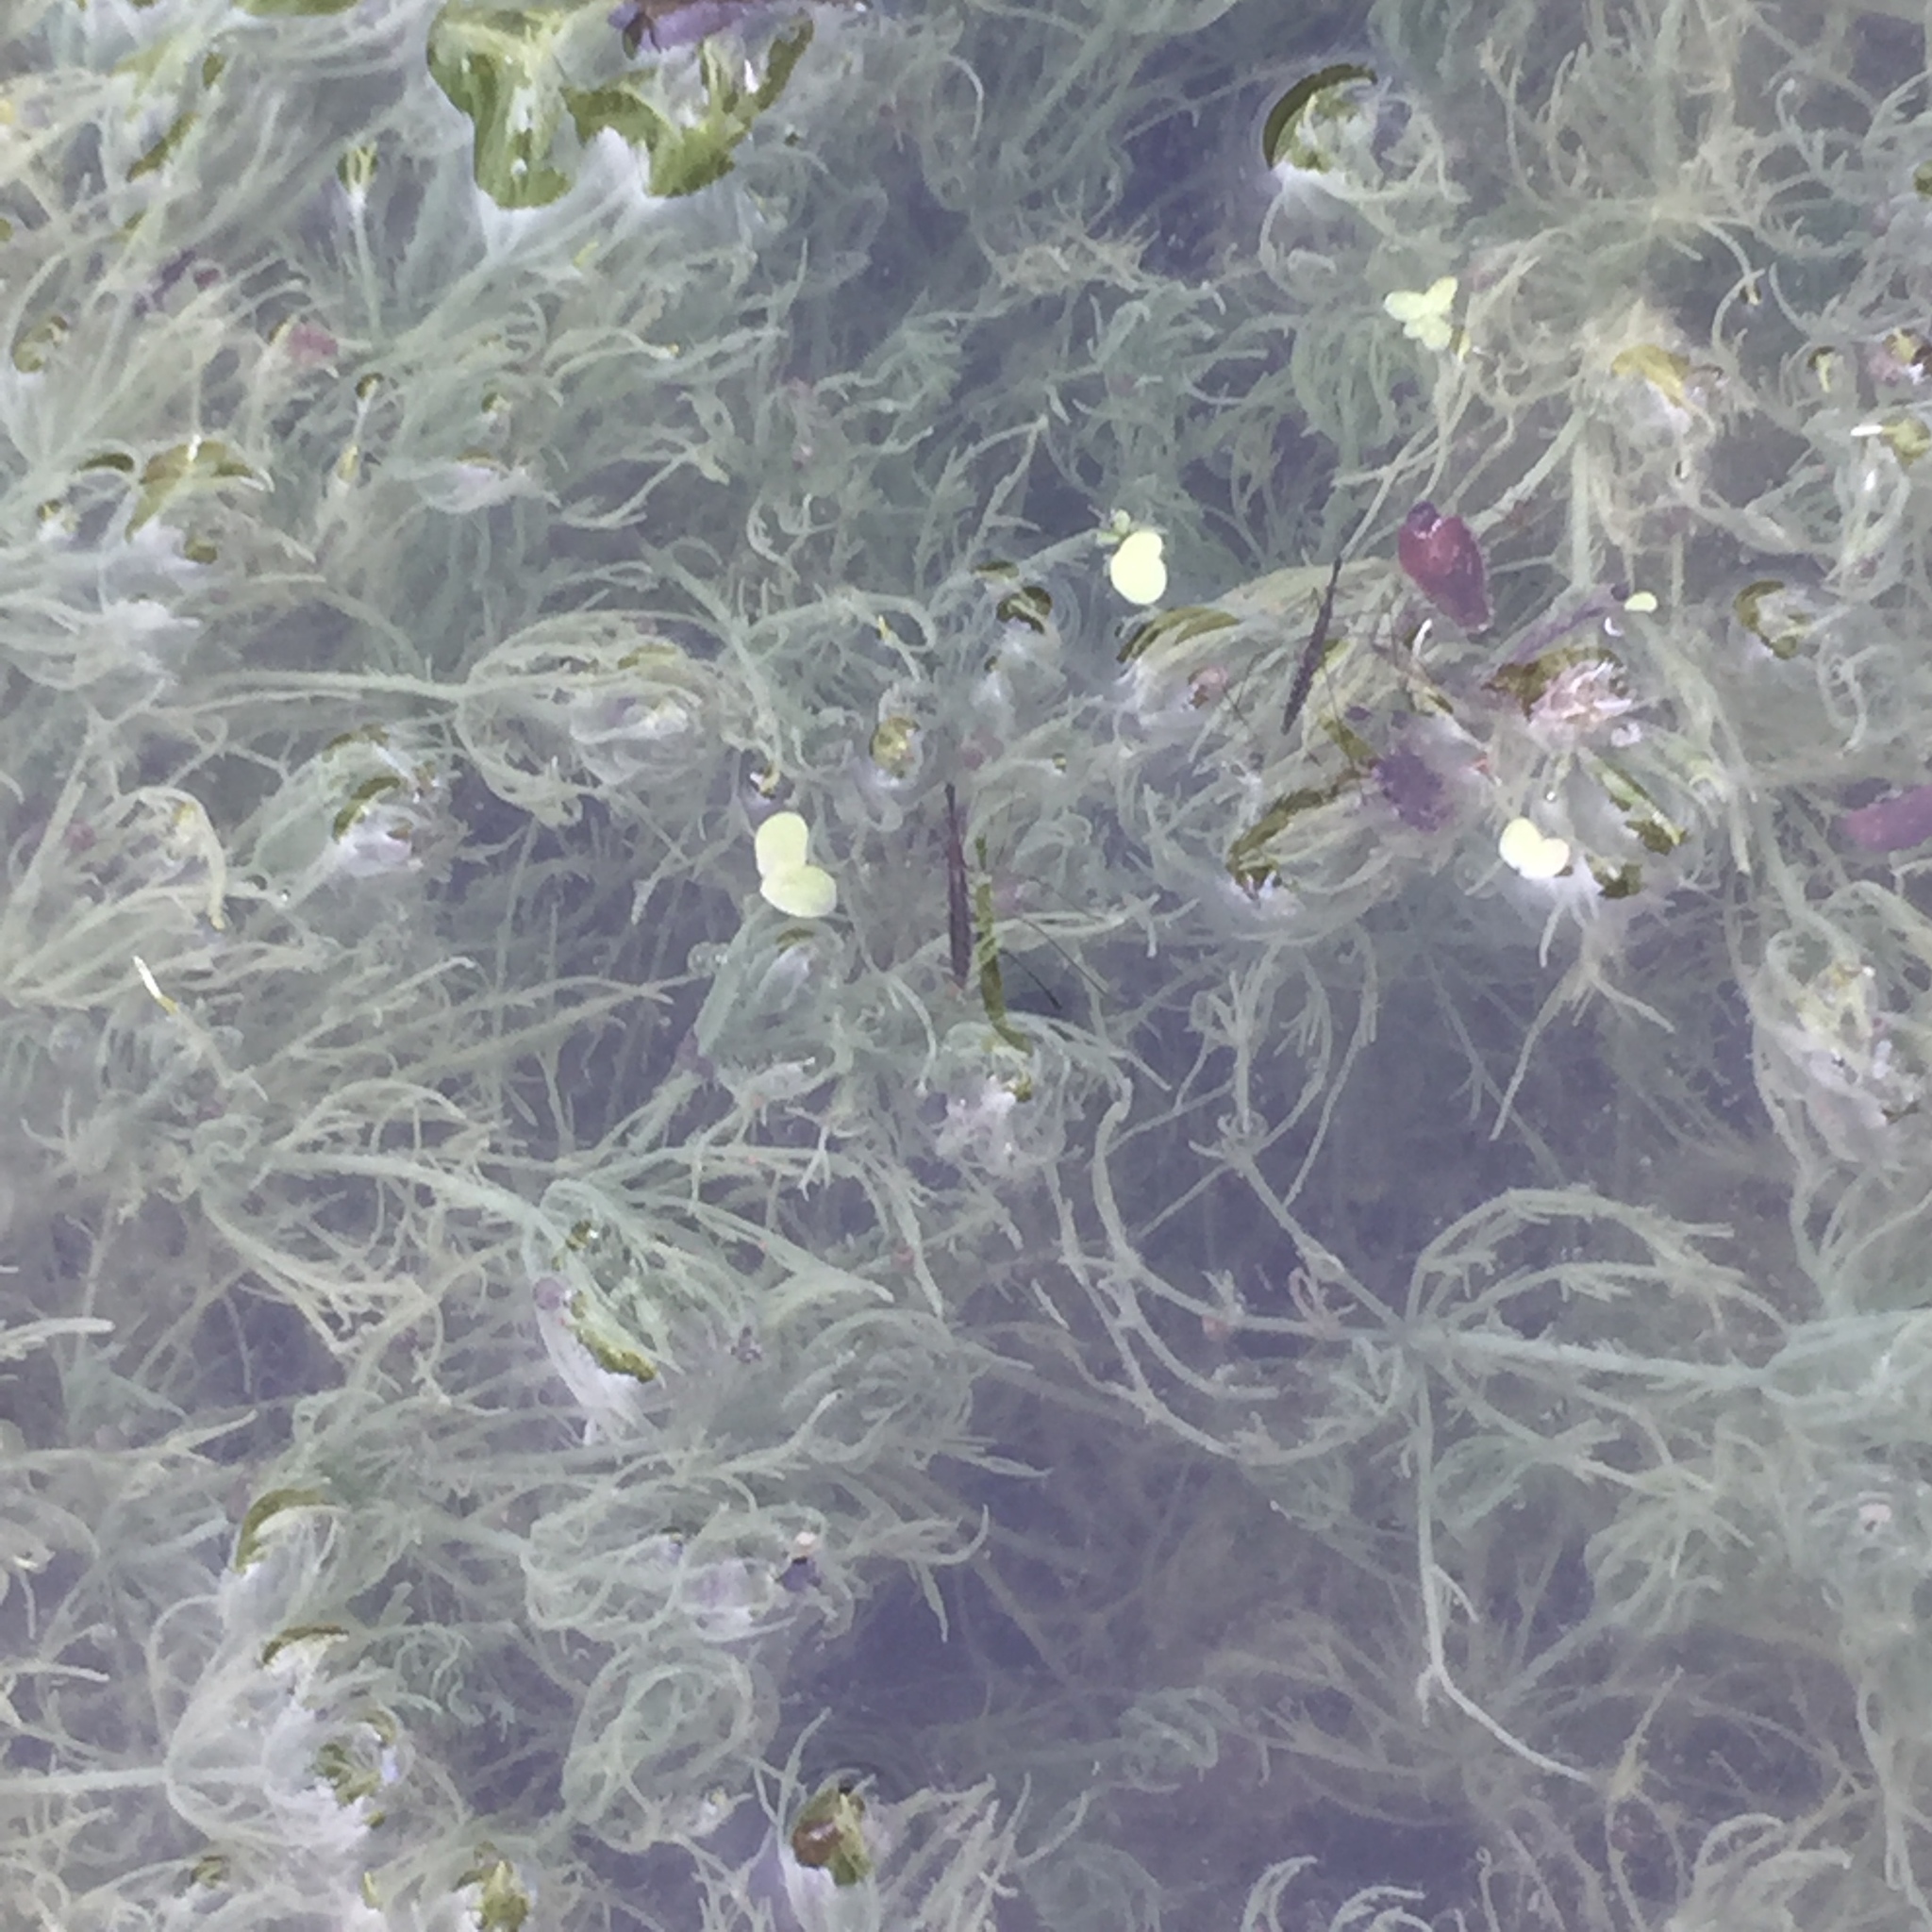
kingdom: Plantae
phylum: Charophyta
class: Charophyceae
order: Charales
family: Characeae
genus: Chara
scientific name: Chara vulgaris
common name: Common stonewort
